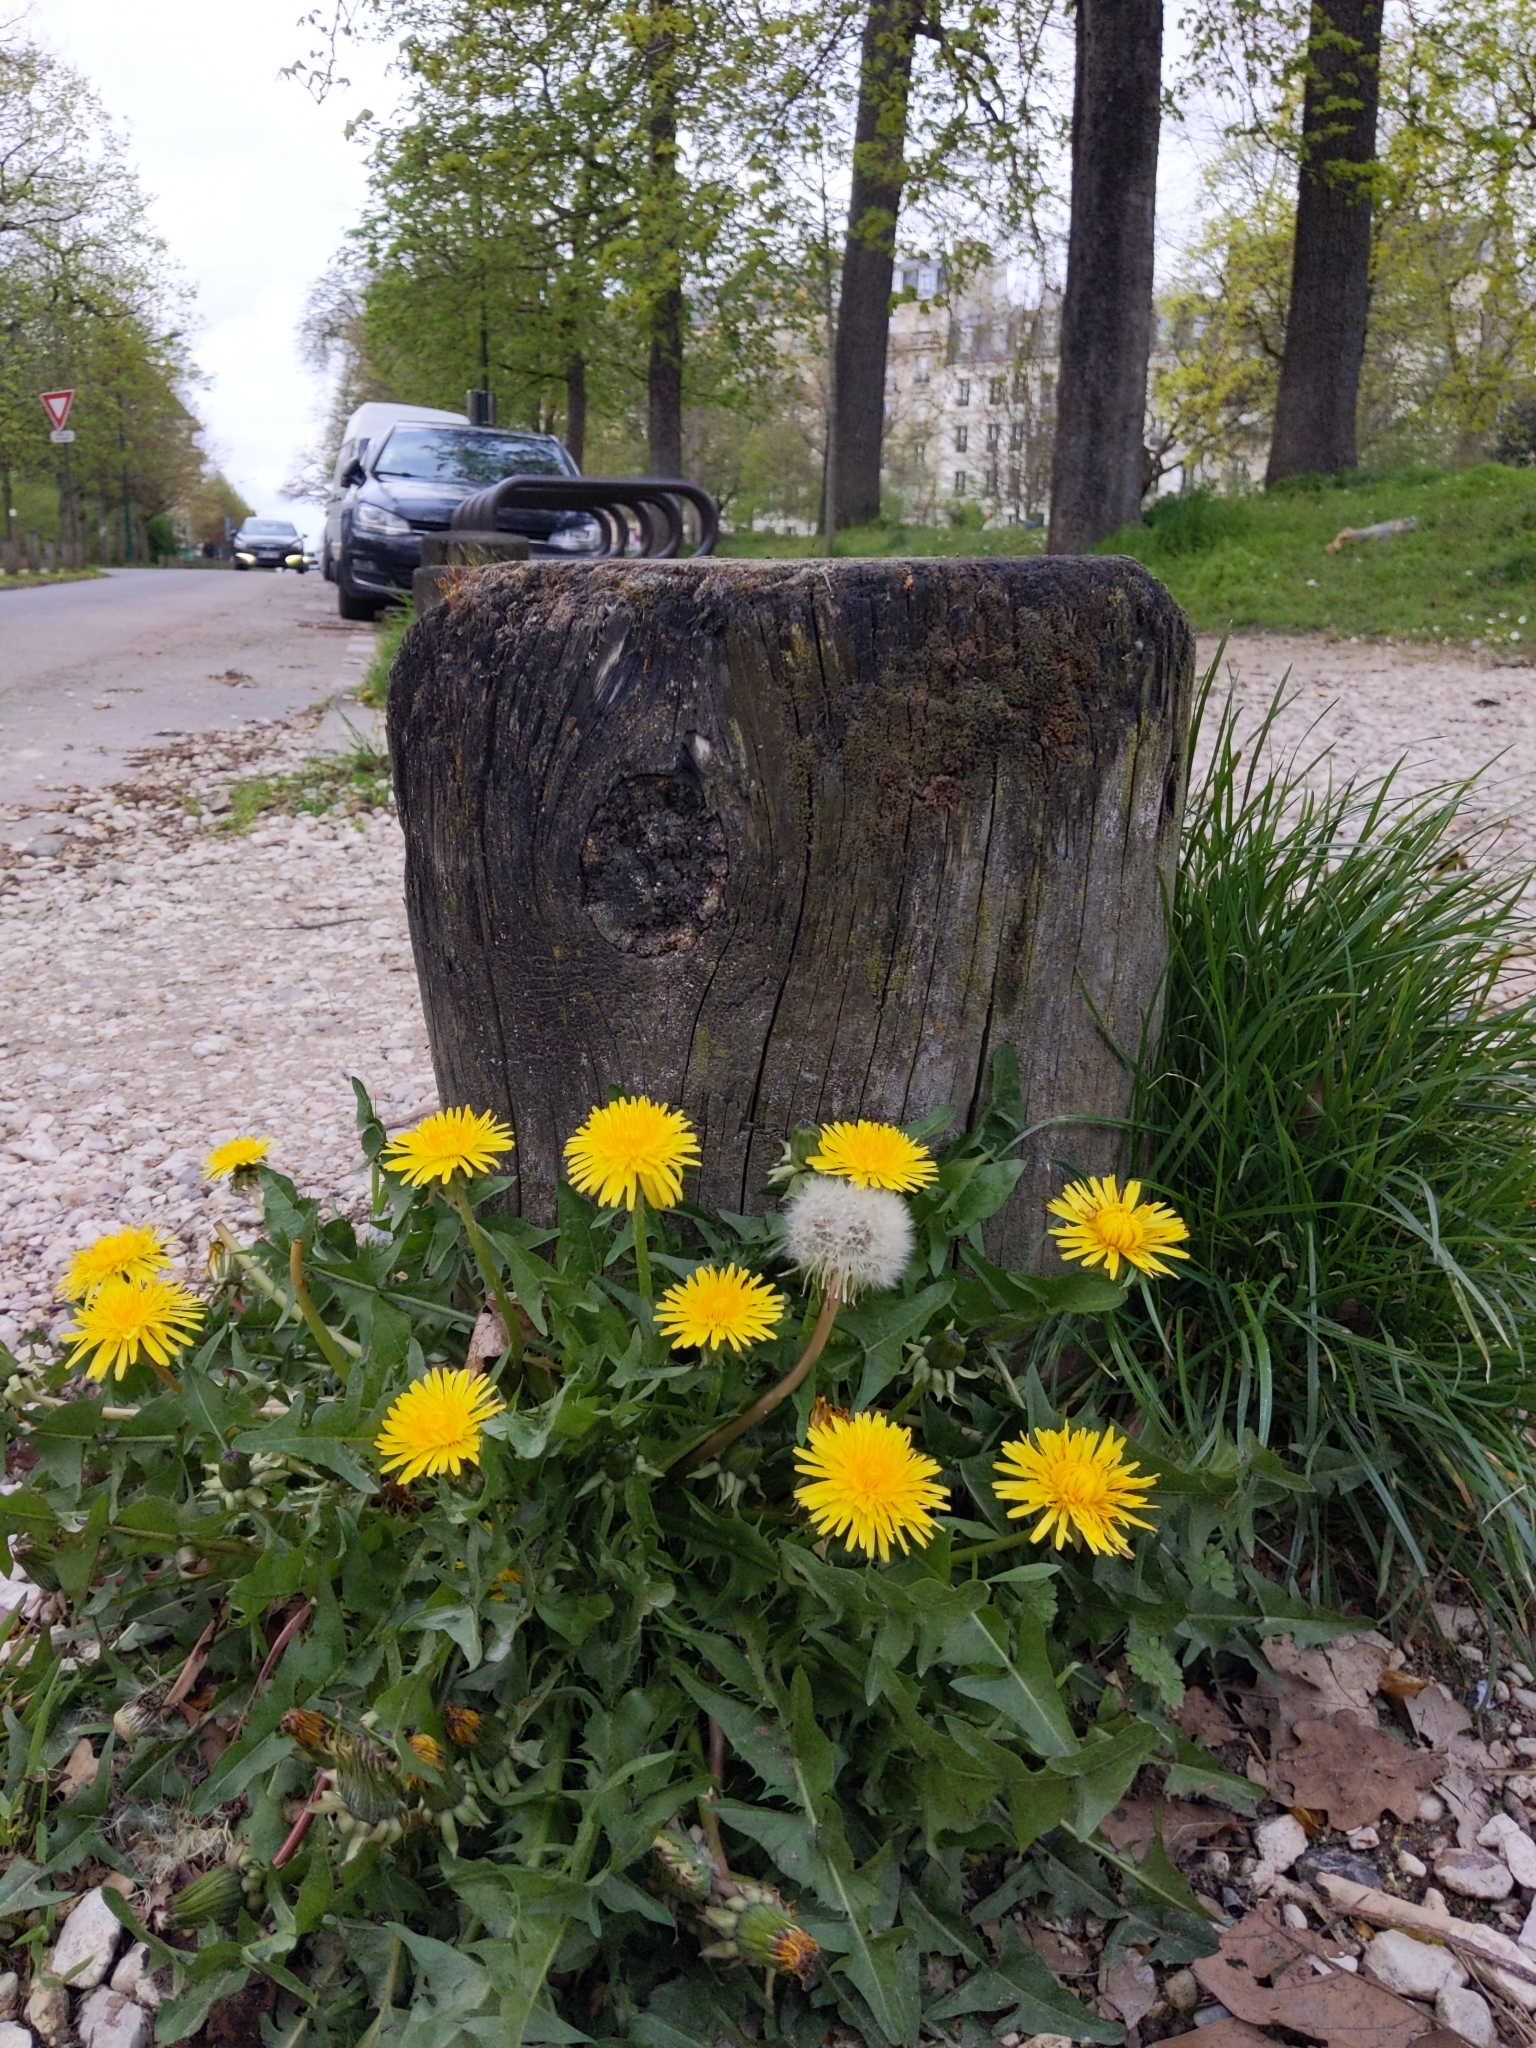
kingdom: Plantae
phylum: Tracheophyta
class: Magnoliopsida
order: Asterales
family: Asteraceae
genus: Taraxacum
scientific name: Taraxacum officinale
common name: Common dandelion
